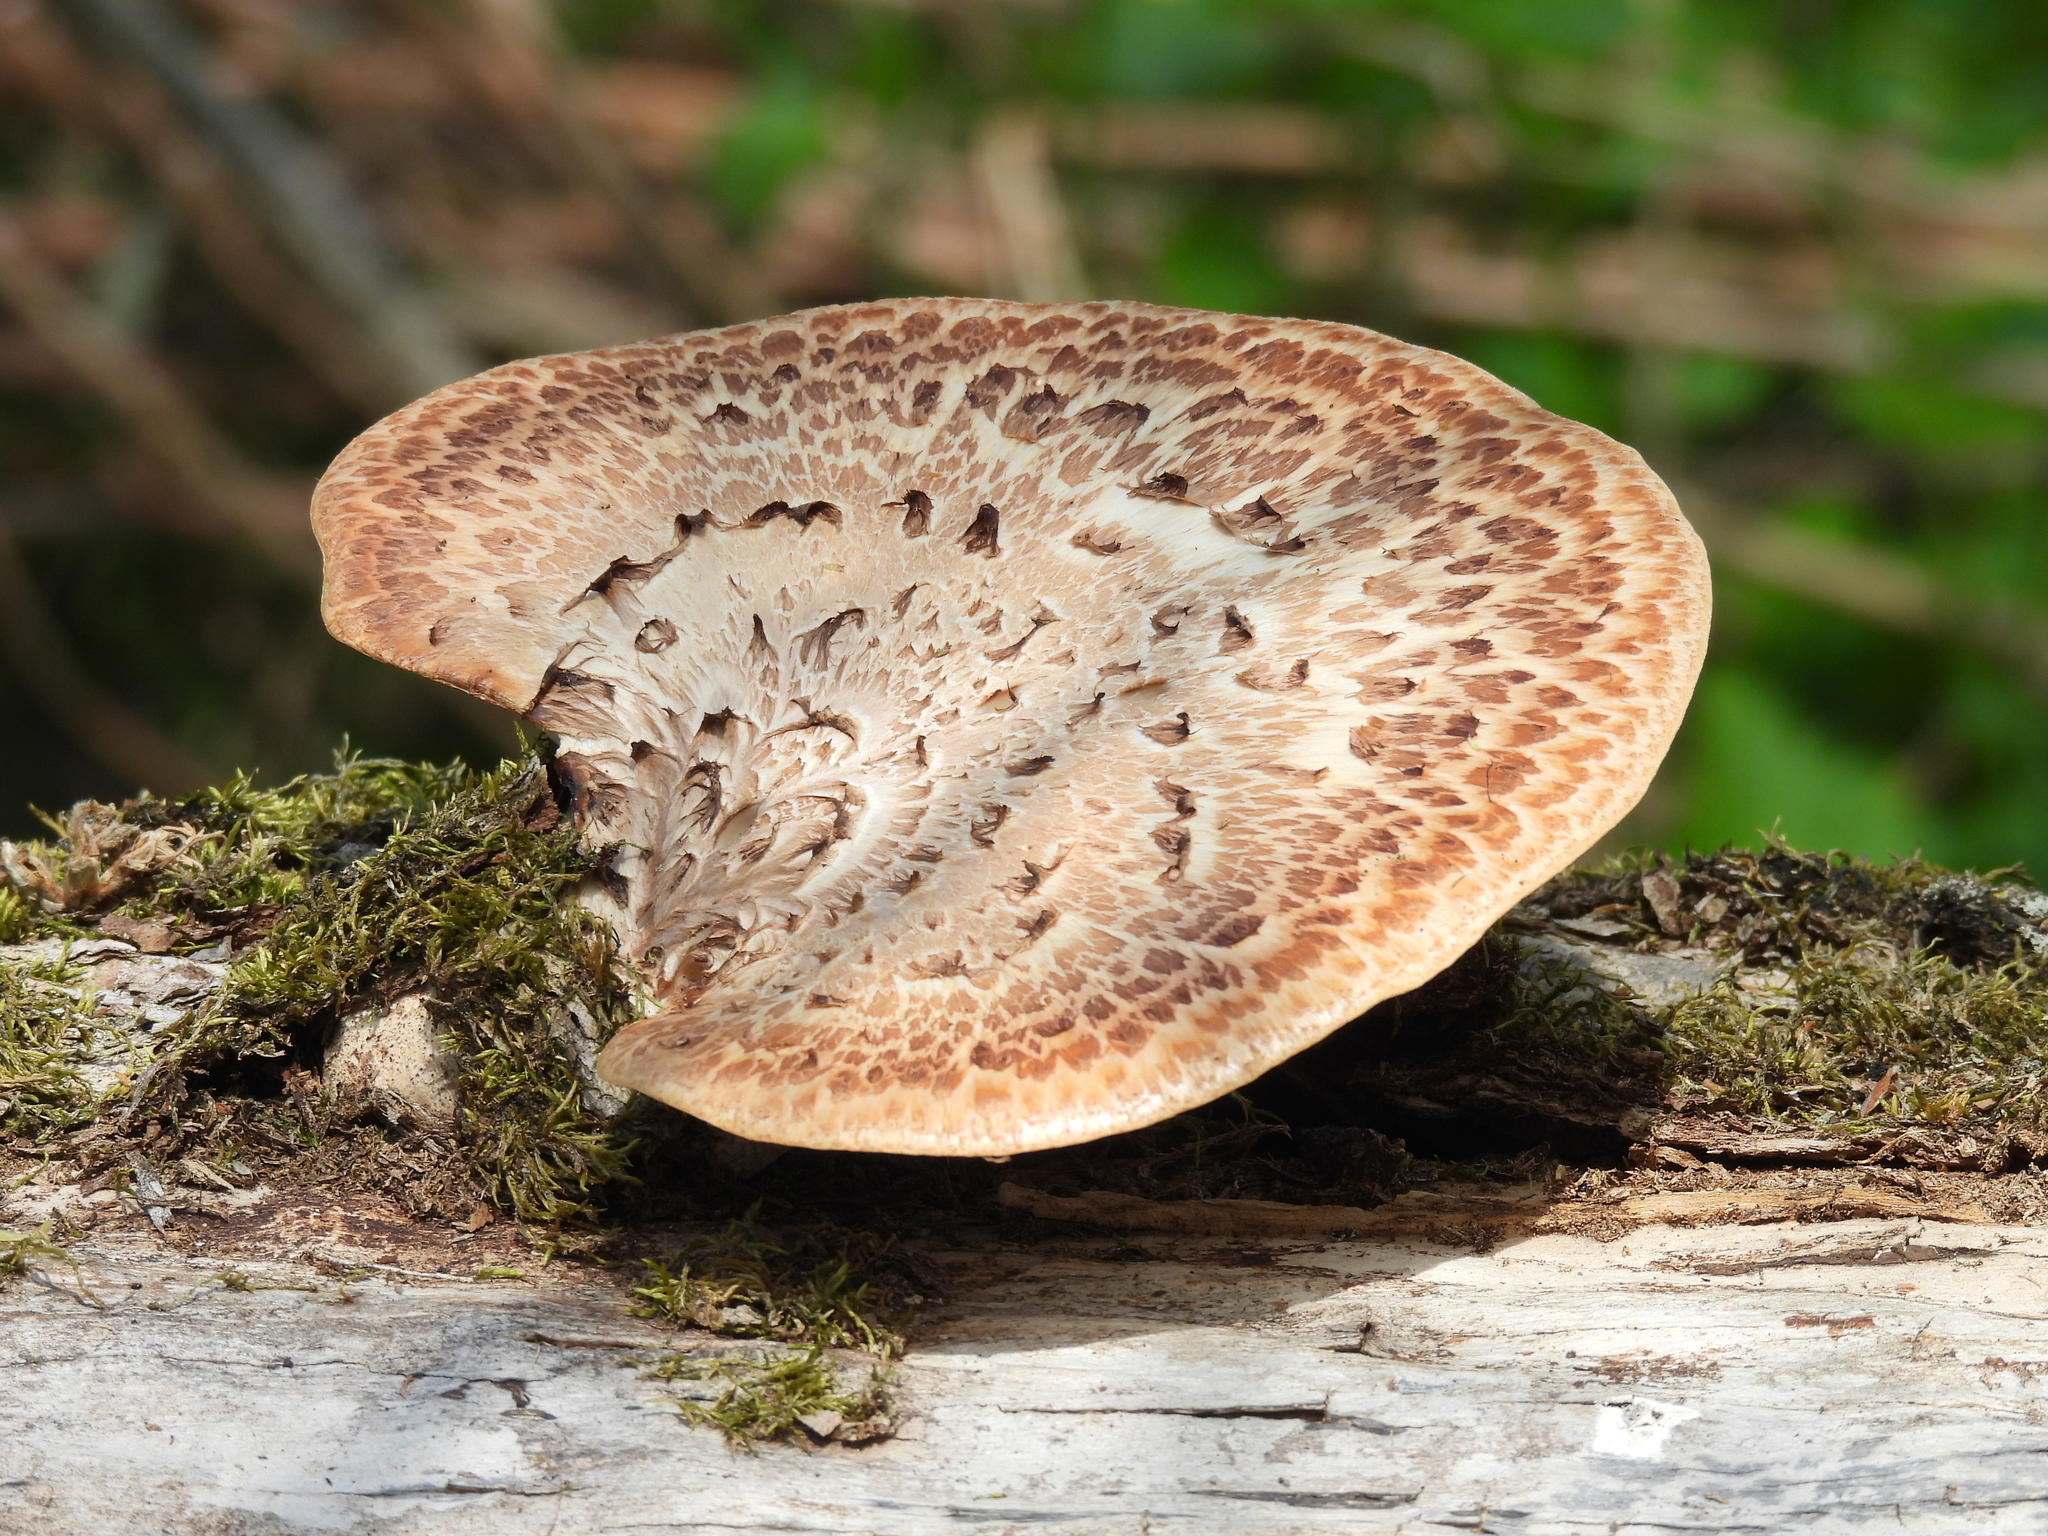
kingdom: Fungi
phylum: Basidiomycota
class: Agaricomycetes
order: Polyporales
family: Polyporaceae
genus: Cerioporus
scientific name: Cerioporus squamosus
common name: Dryad's saddle
